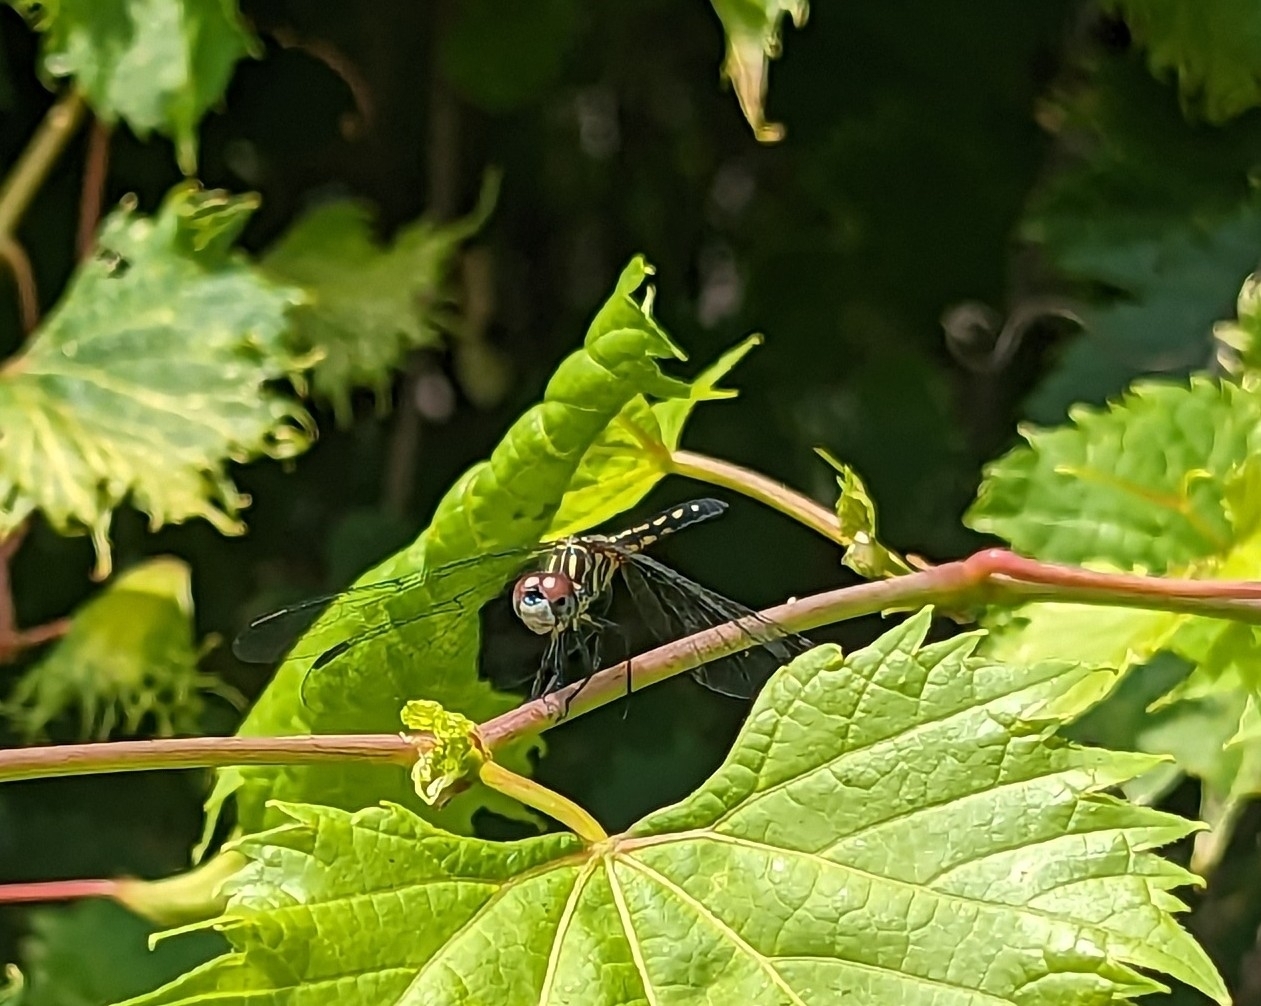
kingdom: Animalia
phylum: Arthropoda
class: Insecta
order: Odonata
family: Libellulidae
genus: Pachydiplax
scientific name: Pachydiplax longipennis
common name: Blue dasher
